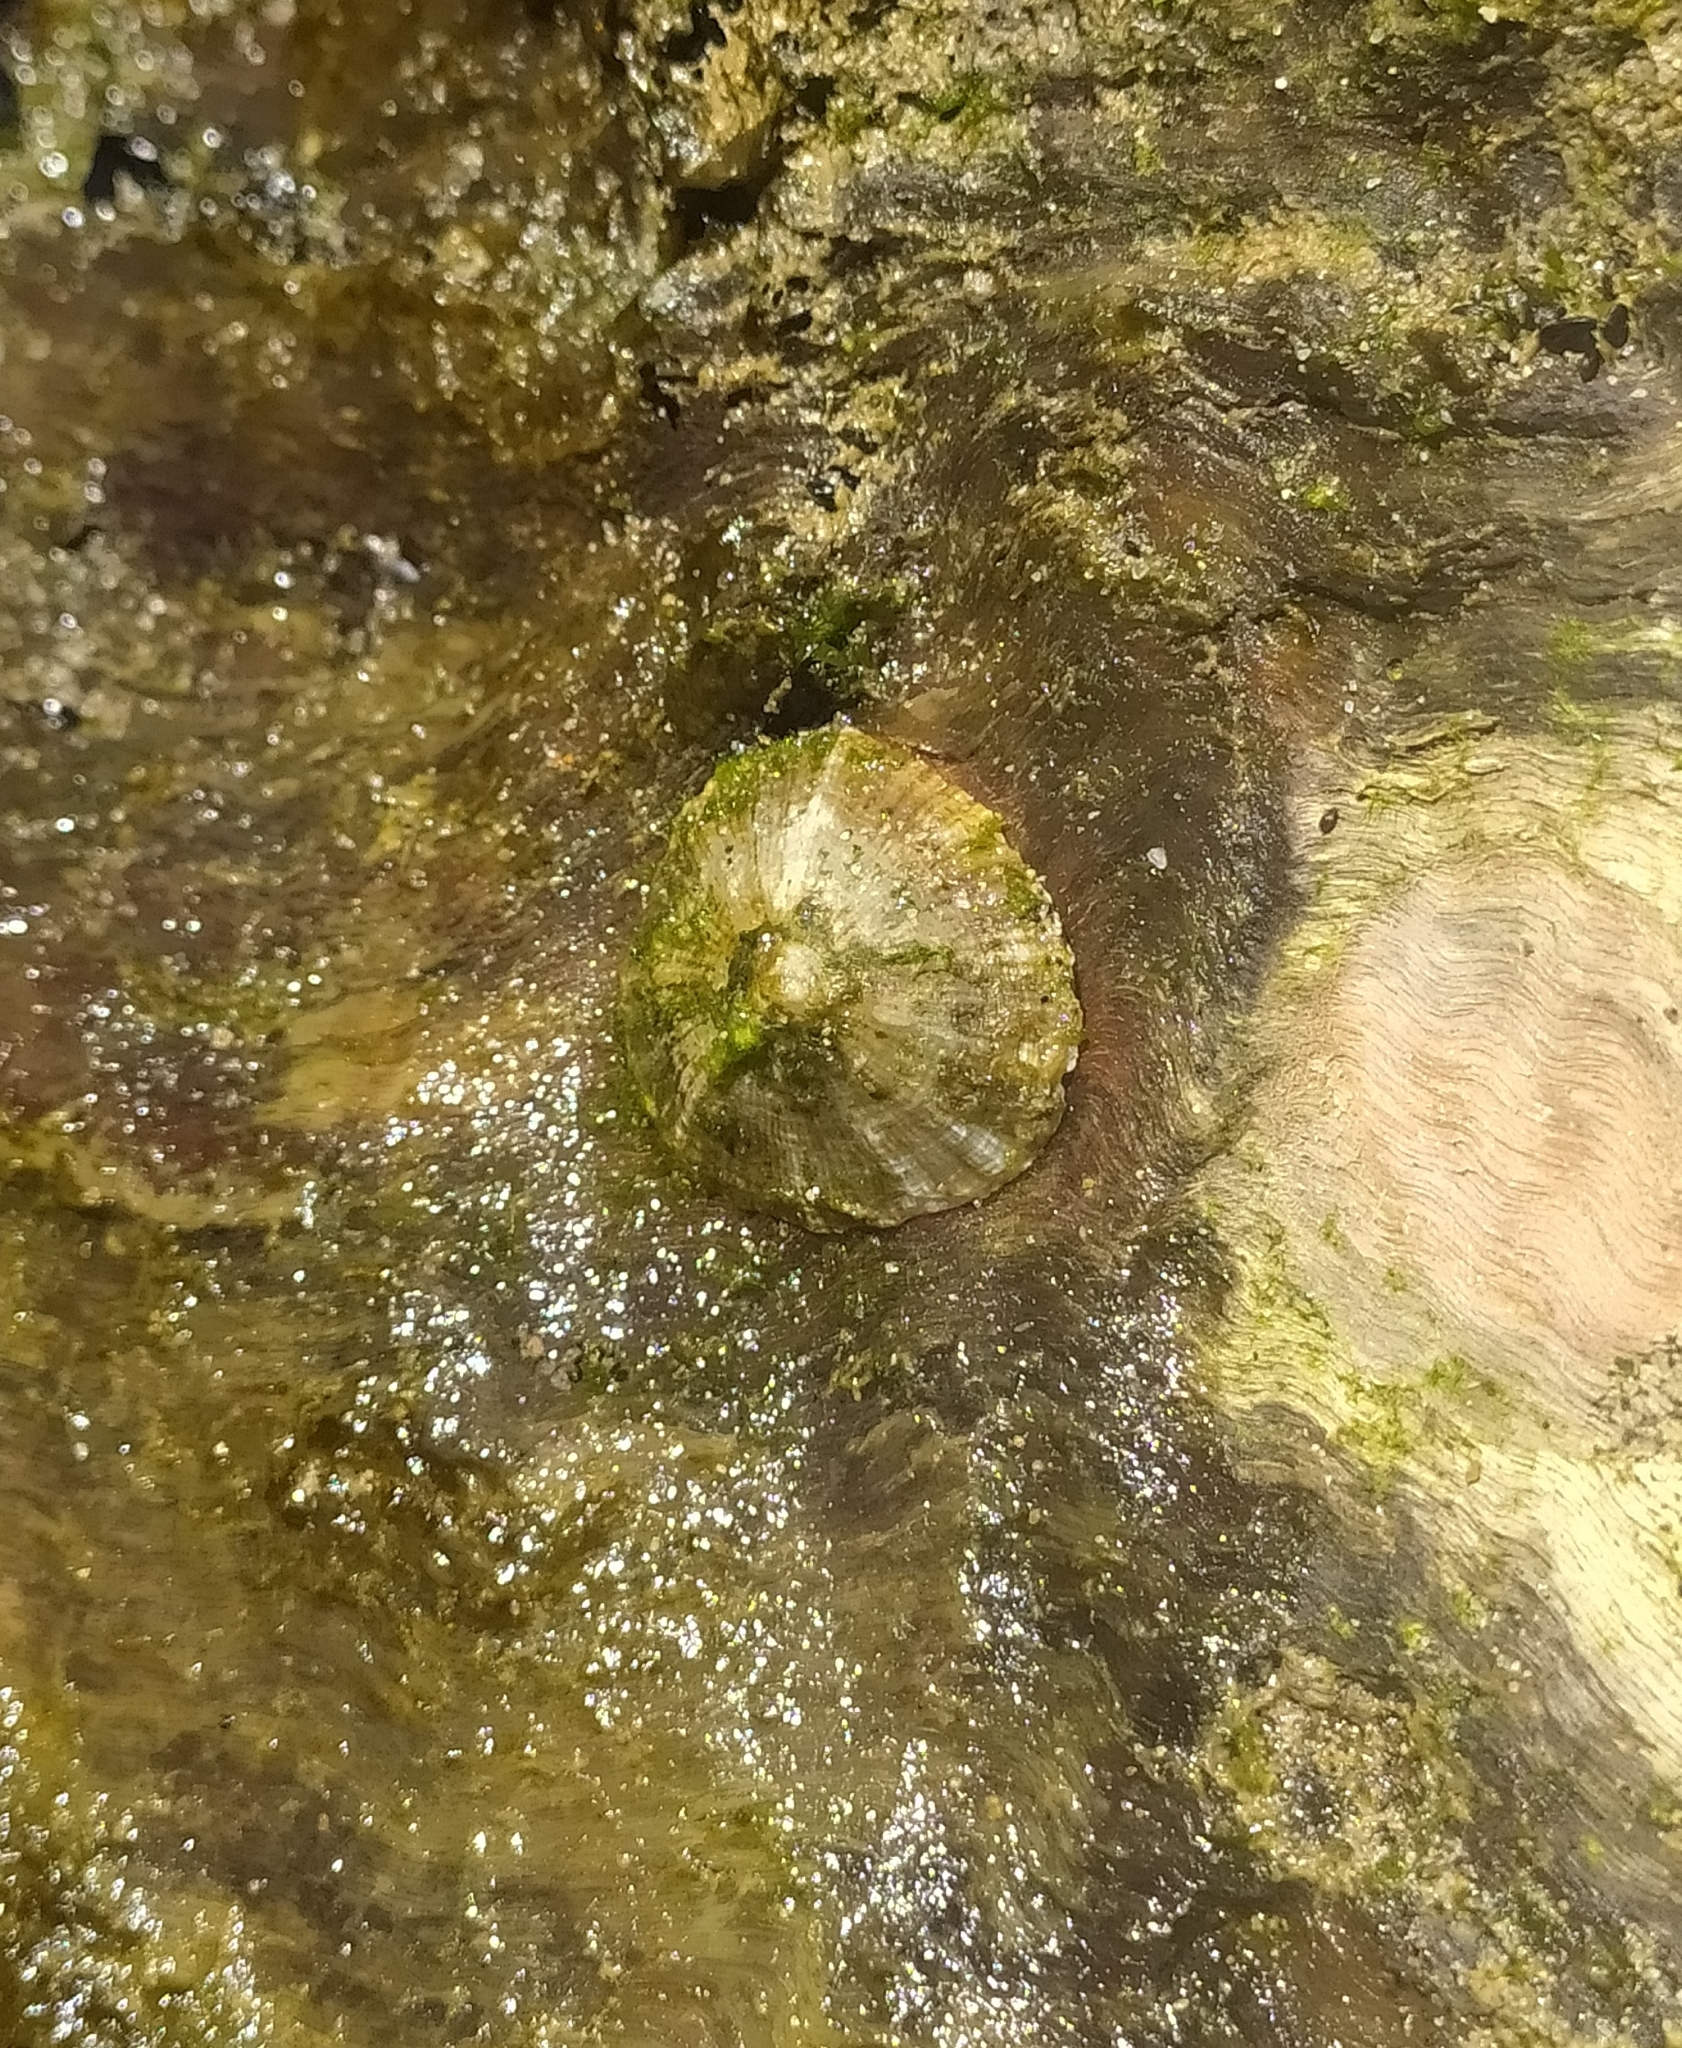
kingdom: Animalia
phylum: Mollusca
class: Gastropoda
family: Patellidae
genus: Patella
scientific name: Patella caerulea
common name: Mediterranean limpet
